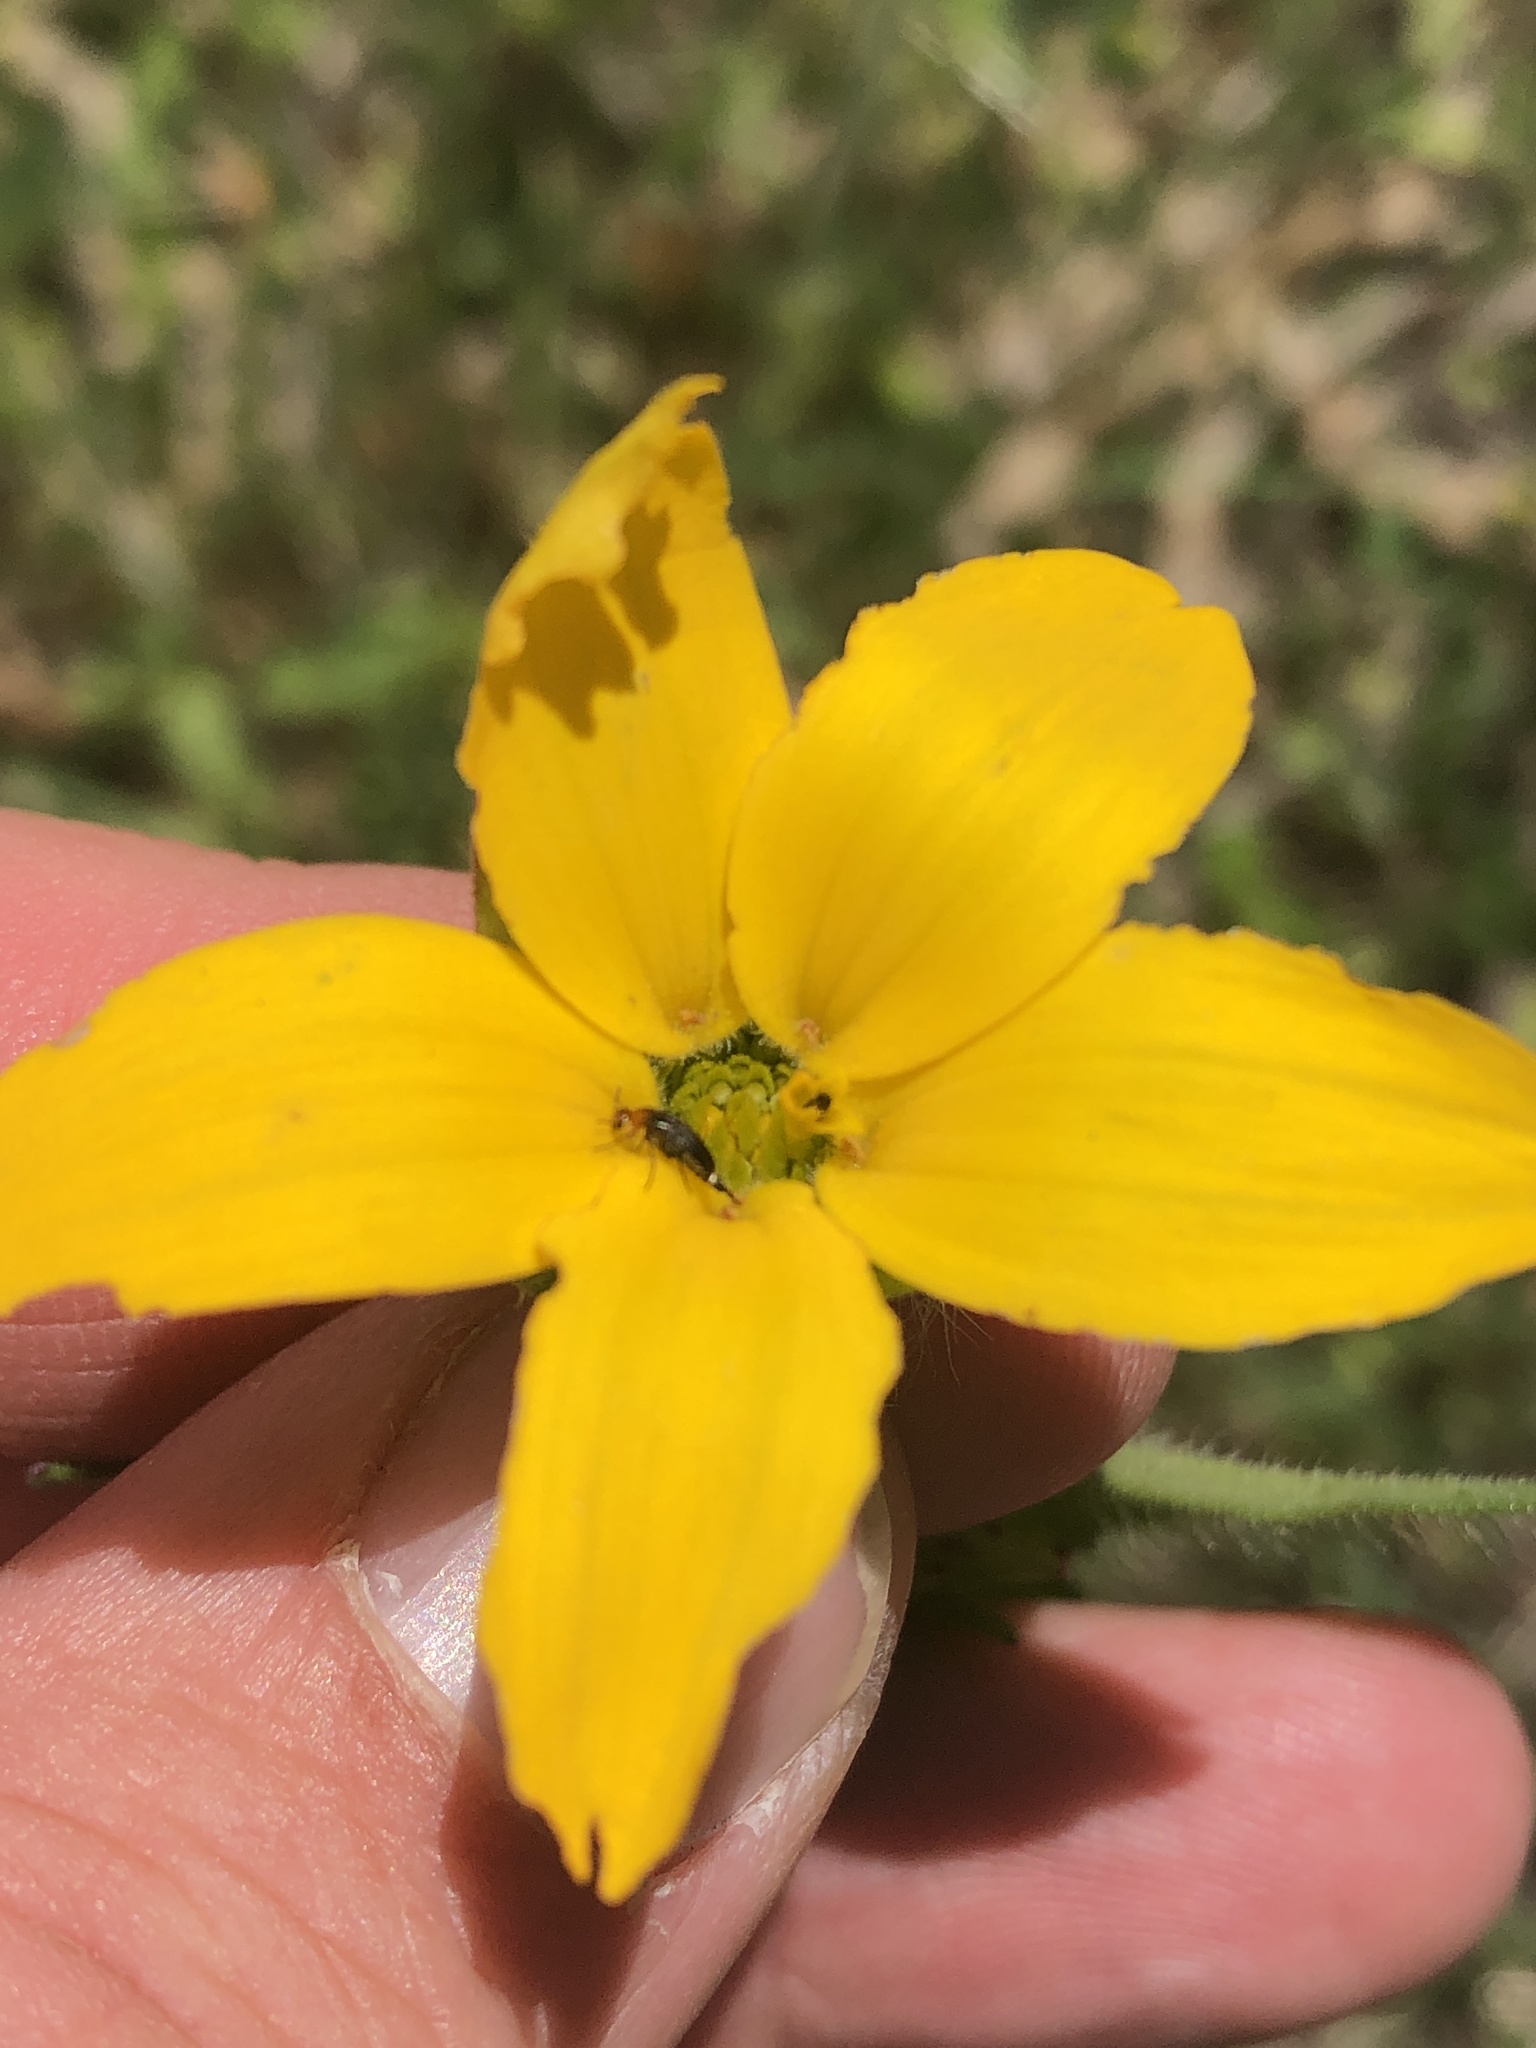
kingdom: Plantae
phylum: Tracheophyta
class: Magnoliopsida
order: Asterales
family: Asteraceae
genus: Lindheimera
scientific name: Lindheimera texana
